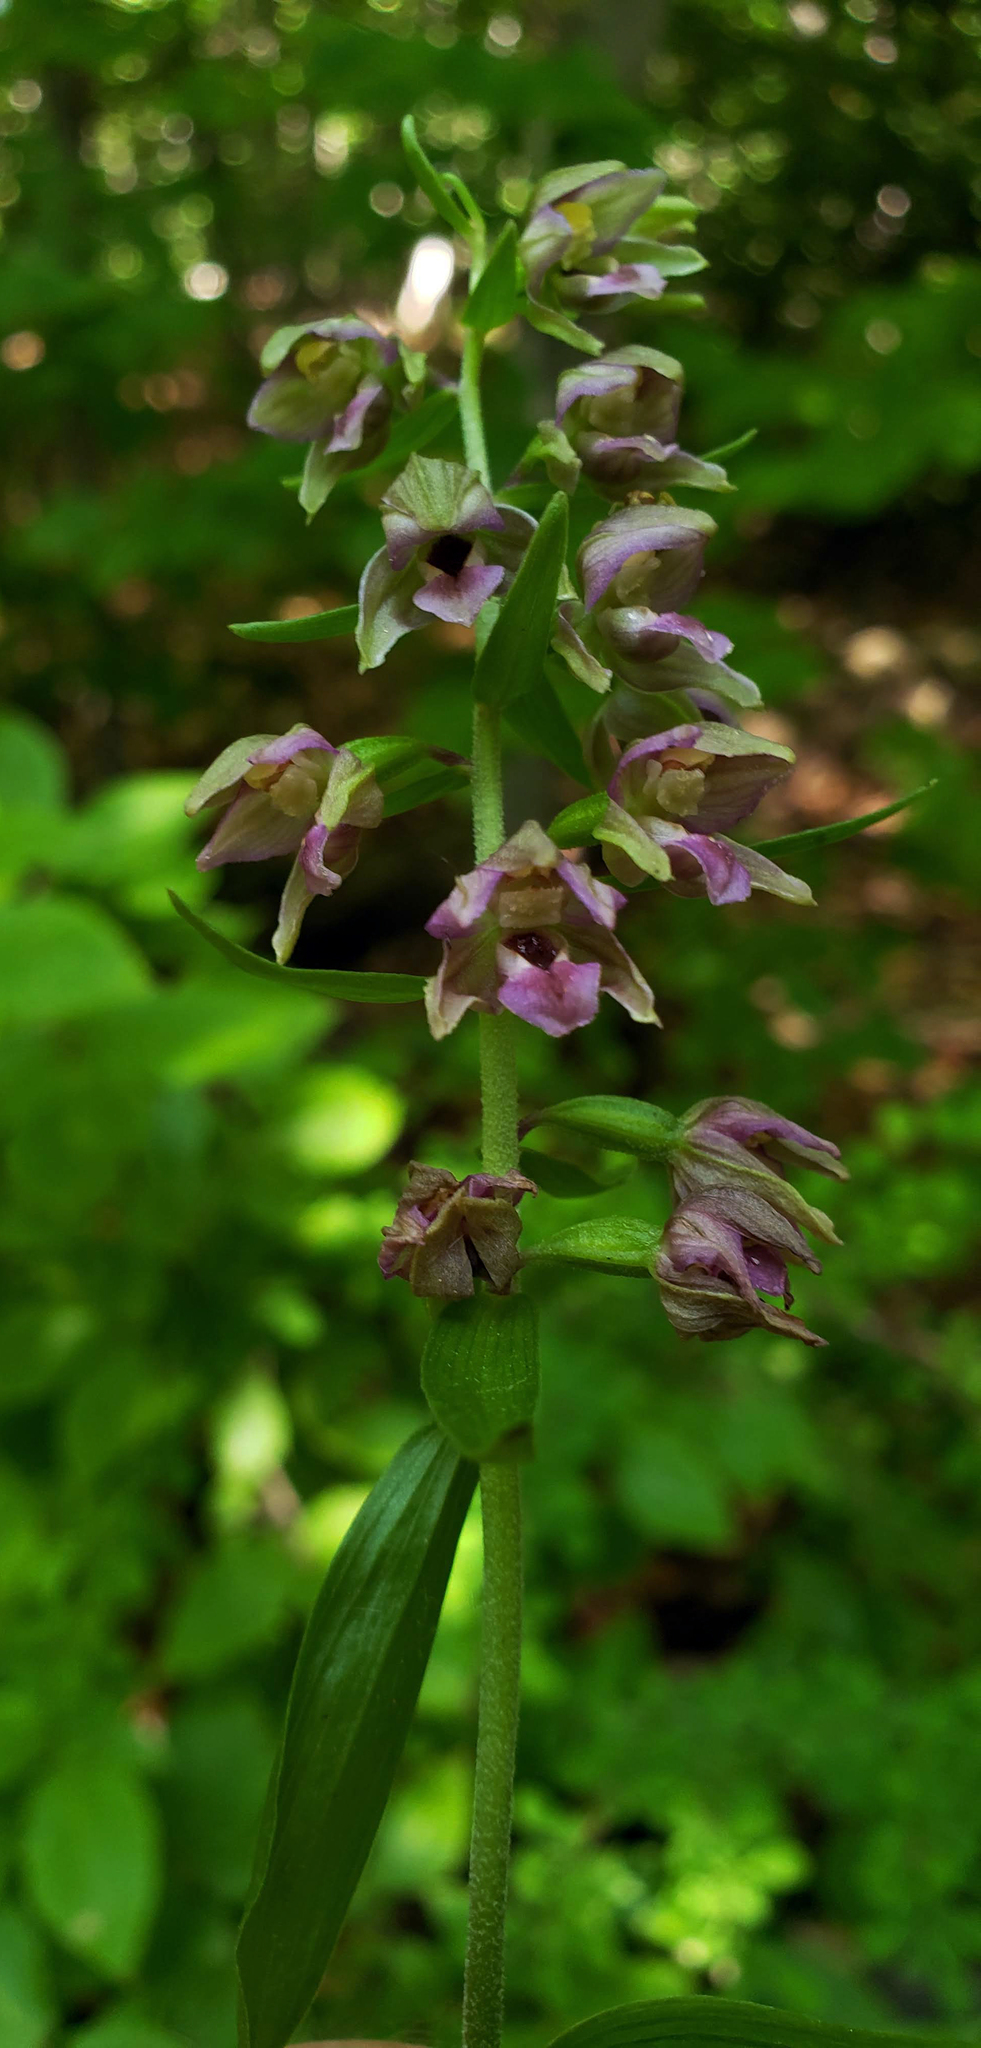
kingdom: Plantae
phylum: Tracheophyta
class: Liliopsida
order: Asparagales
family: Orchidaceae
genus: Epipactis
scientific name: Epipactis helleborine
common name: Broad-leaved helleborine
